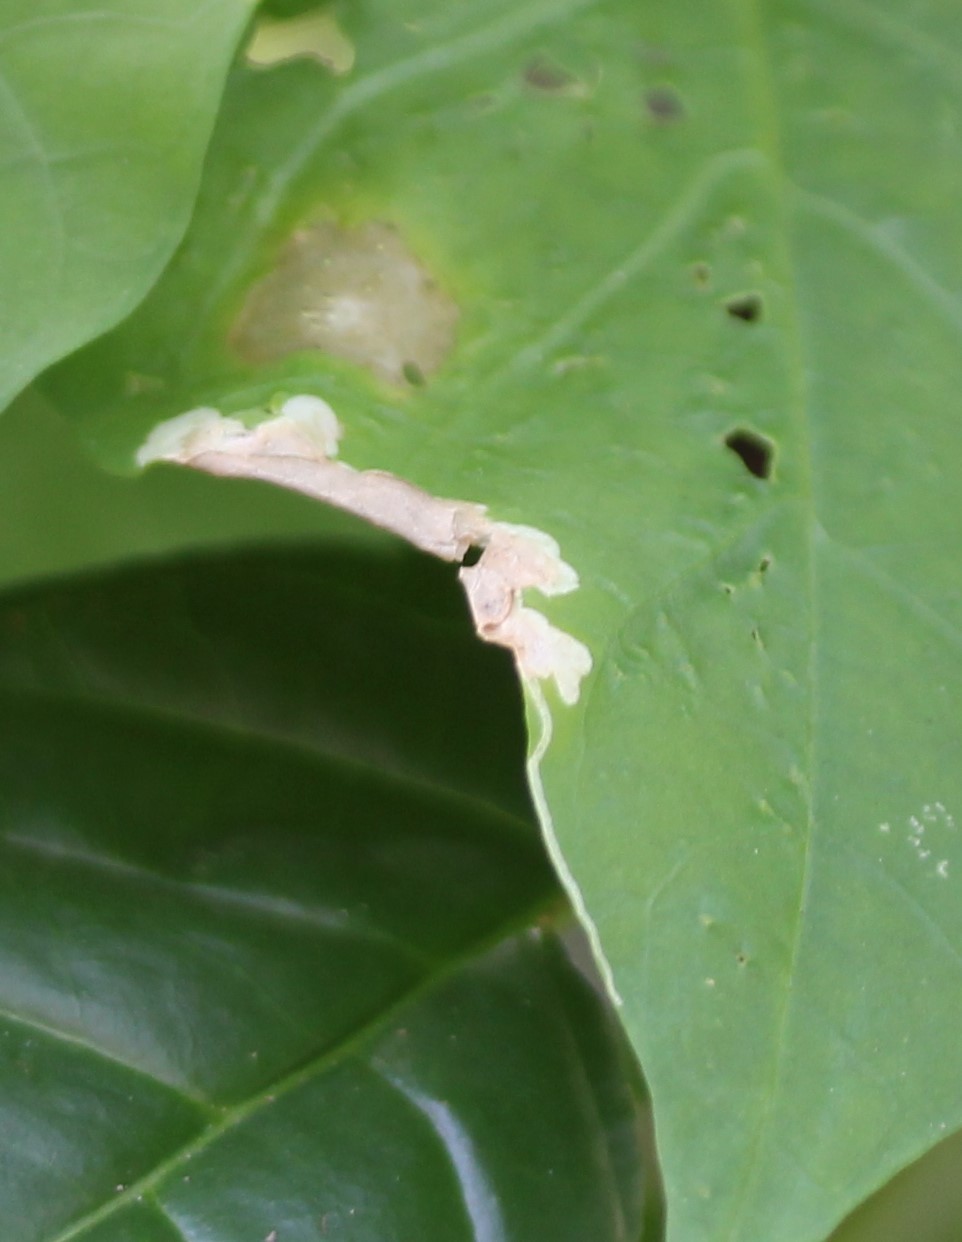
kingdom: Animalia
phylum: Arthropoda
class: Insecta
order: Diptera
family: Agromyzidae
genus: Calycomyza
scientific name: Calycomyza ipomaeae
